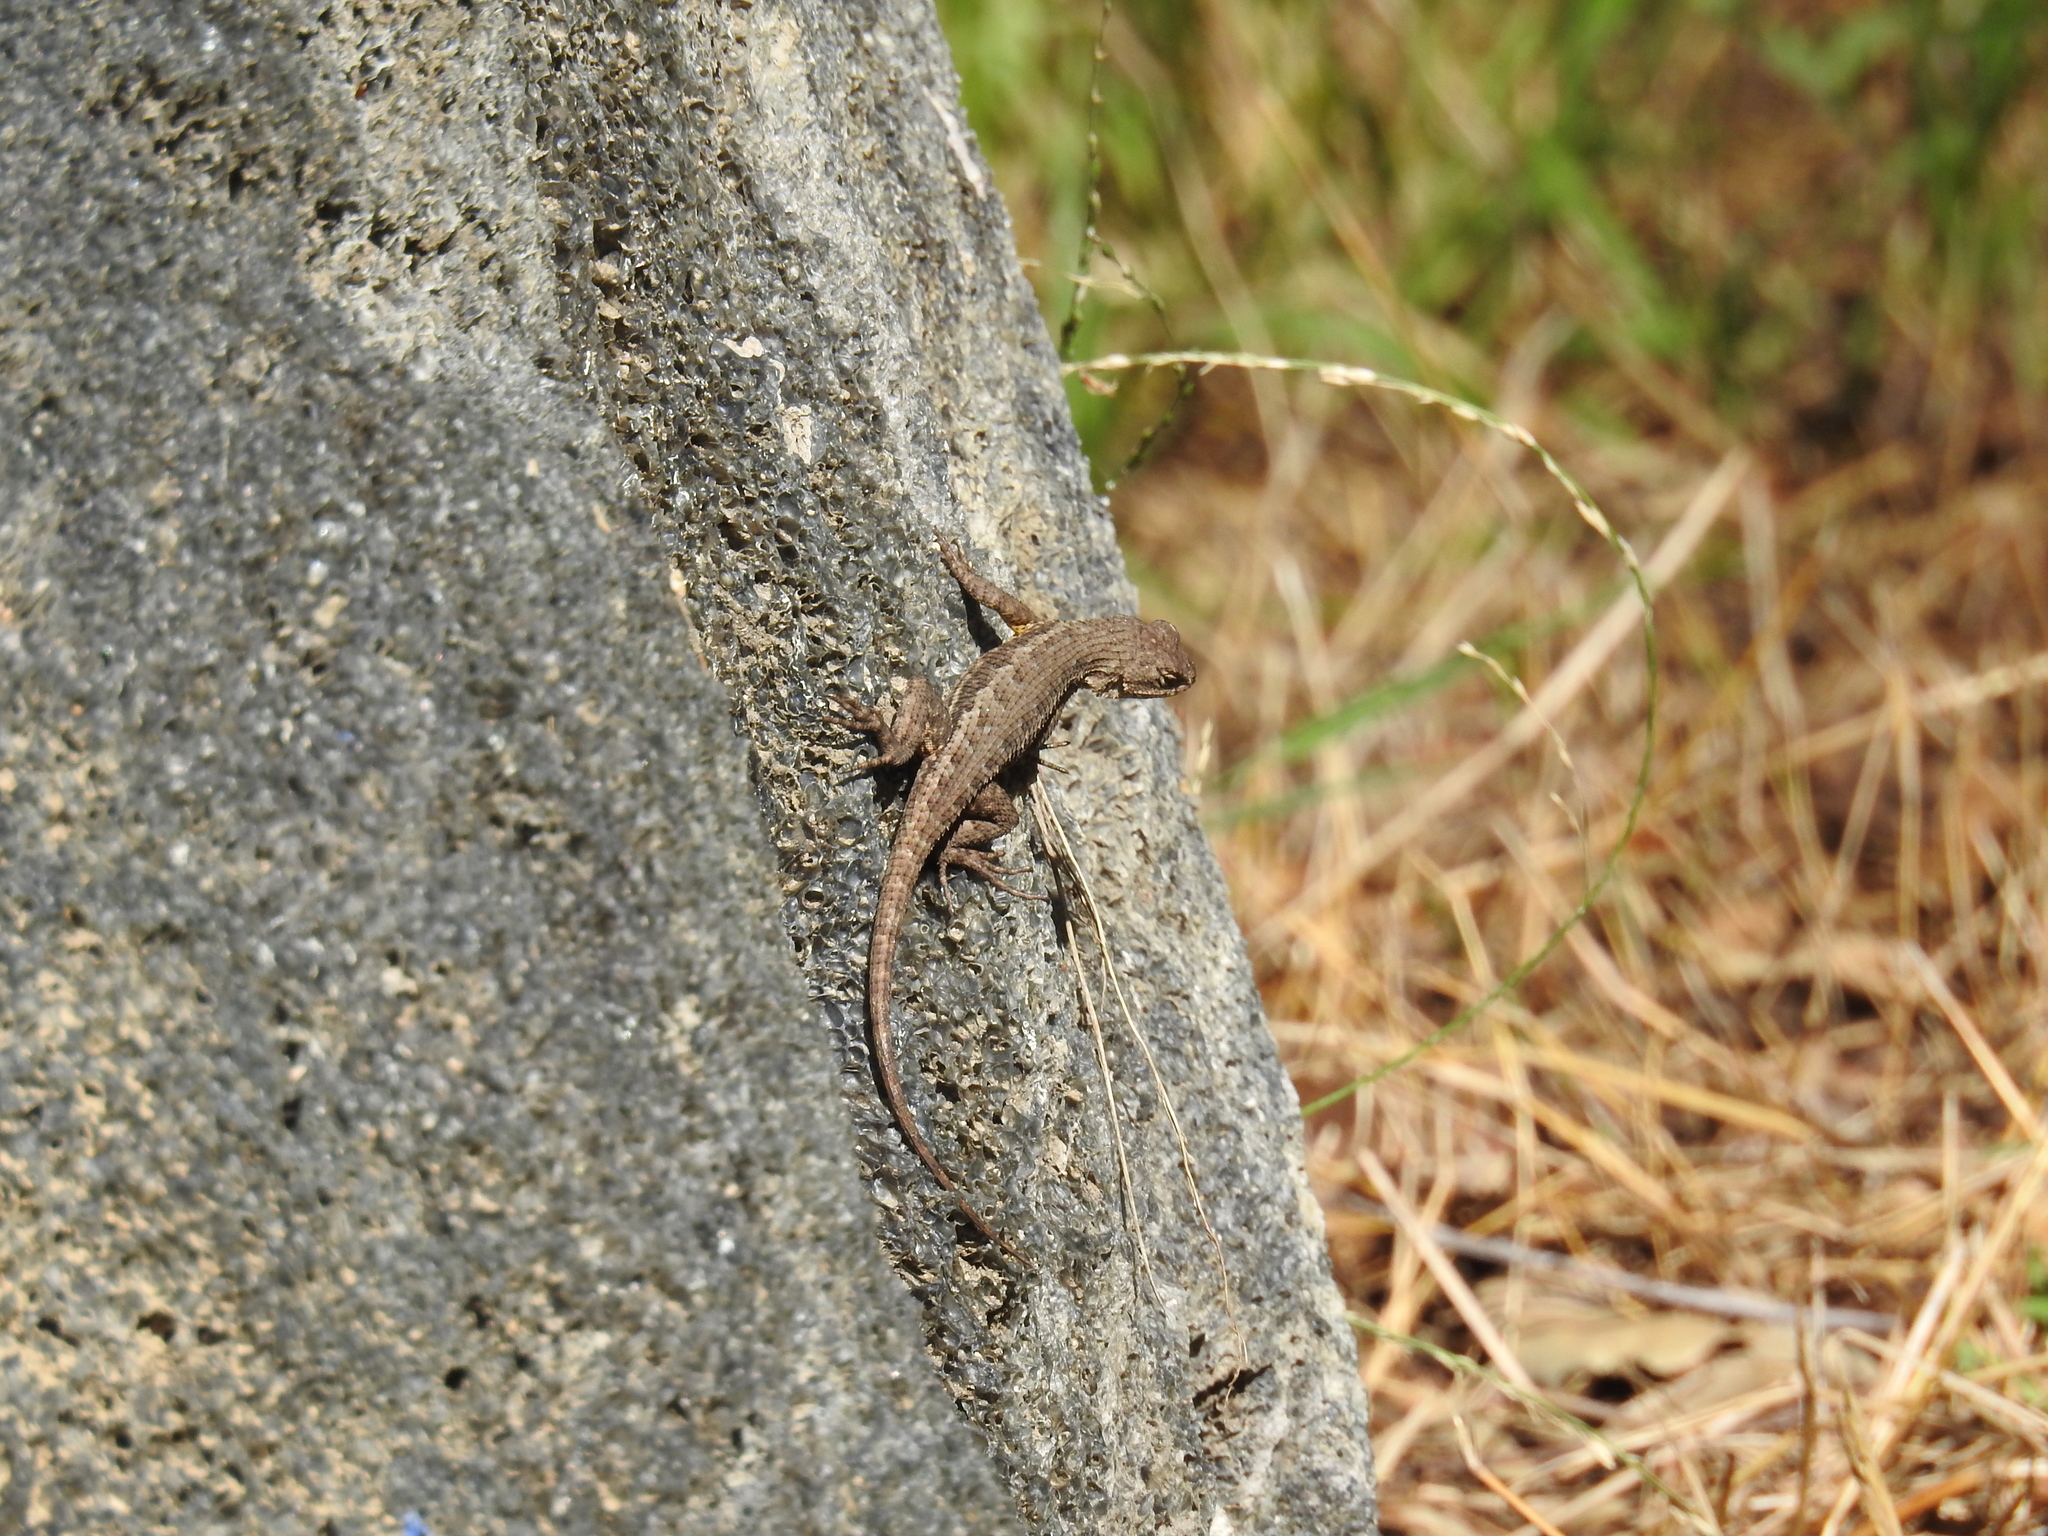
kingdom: Animalia
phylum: Chordata
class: Squamata
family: Phrynosomatidae
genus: Sceloporus
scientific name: Sceloporus occidentalis
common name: Western fence lizard
